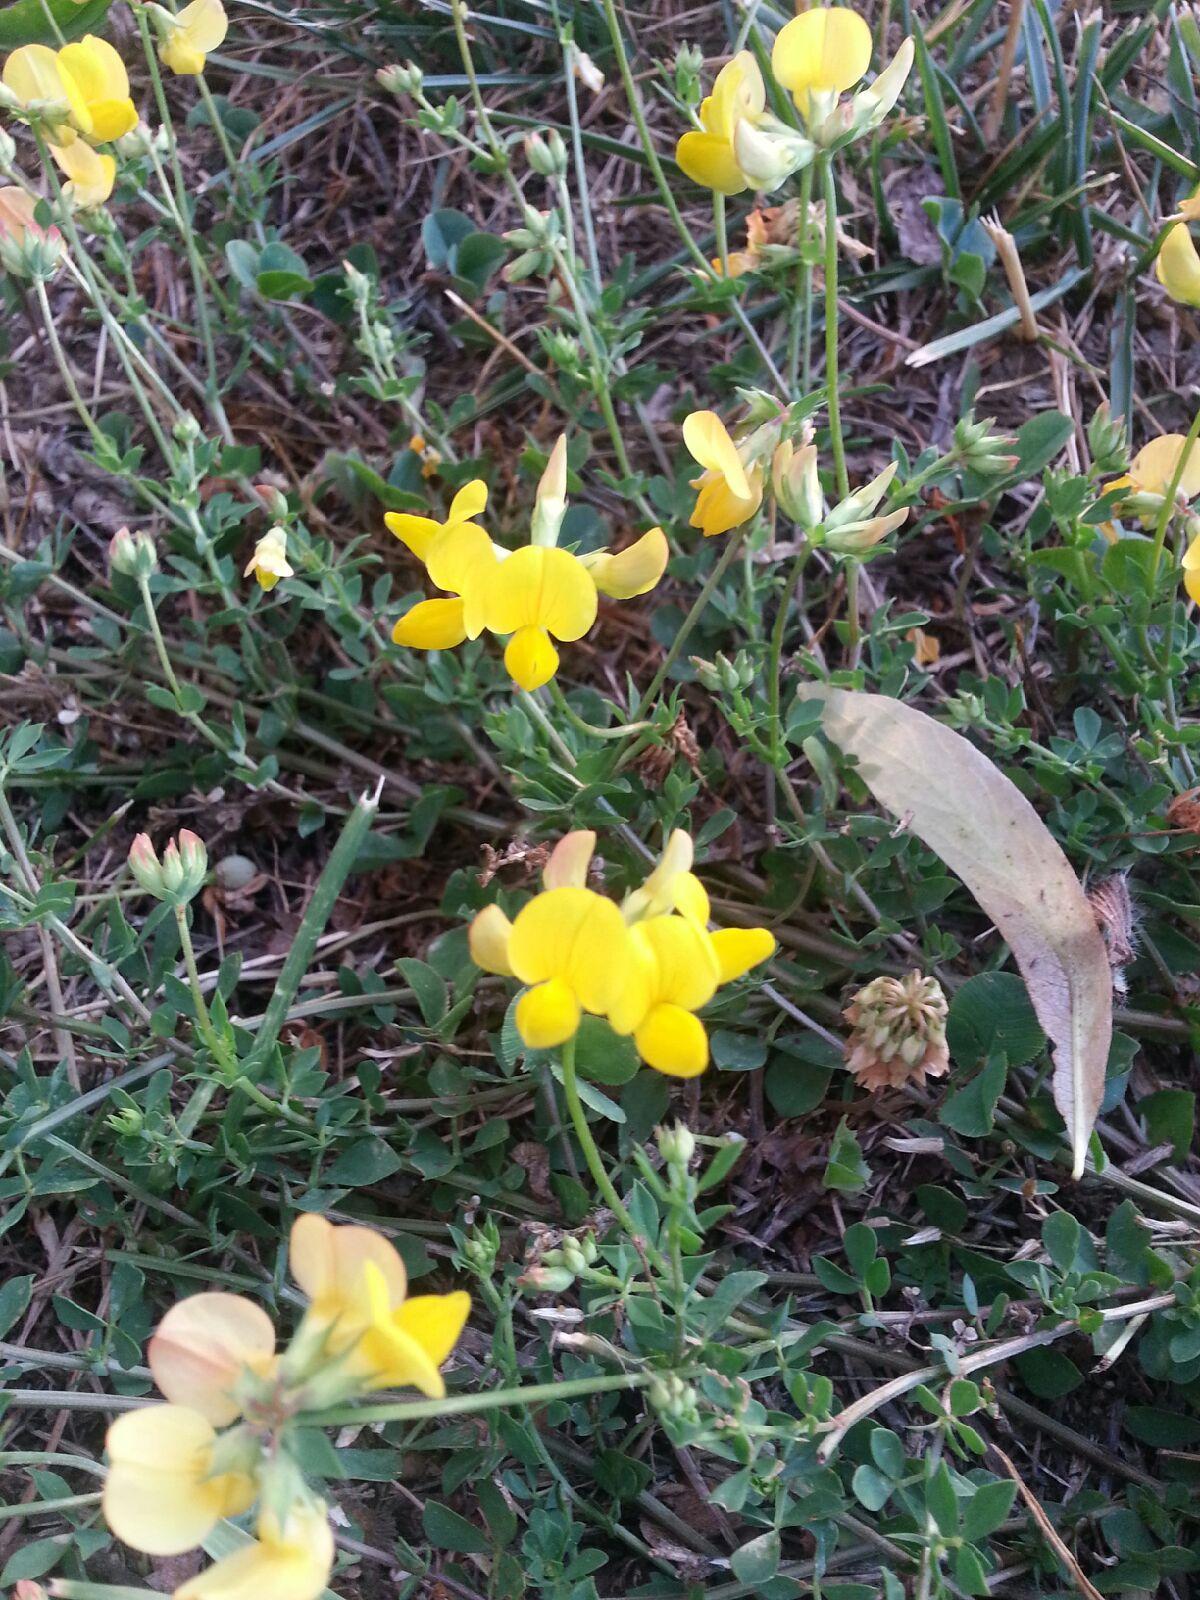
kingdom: Plantae
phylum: Tracheophyta
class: Magnoliopsida
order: Fabales
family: Fabaceae
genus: Lotus
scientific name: Lotus corniculatus
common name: Common bird's-foot-trefoil
